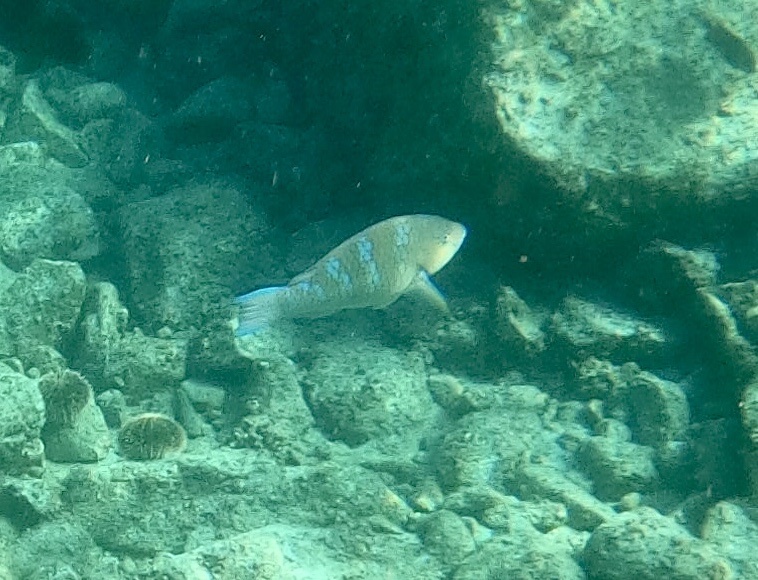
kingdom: Animalia
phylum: Chordata
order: Perciformes
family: Scaridae
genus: Scarus
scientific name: Scarus ghobban
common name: Blue-barred parrotfish
